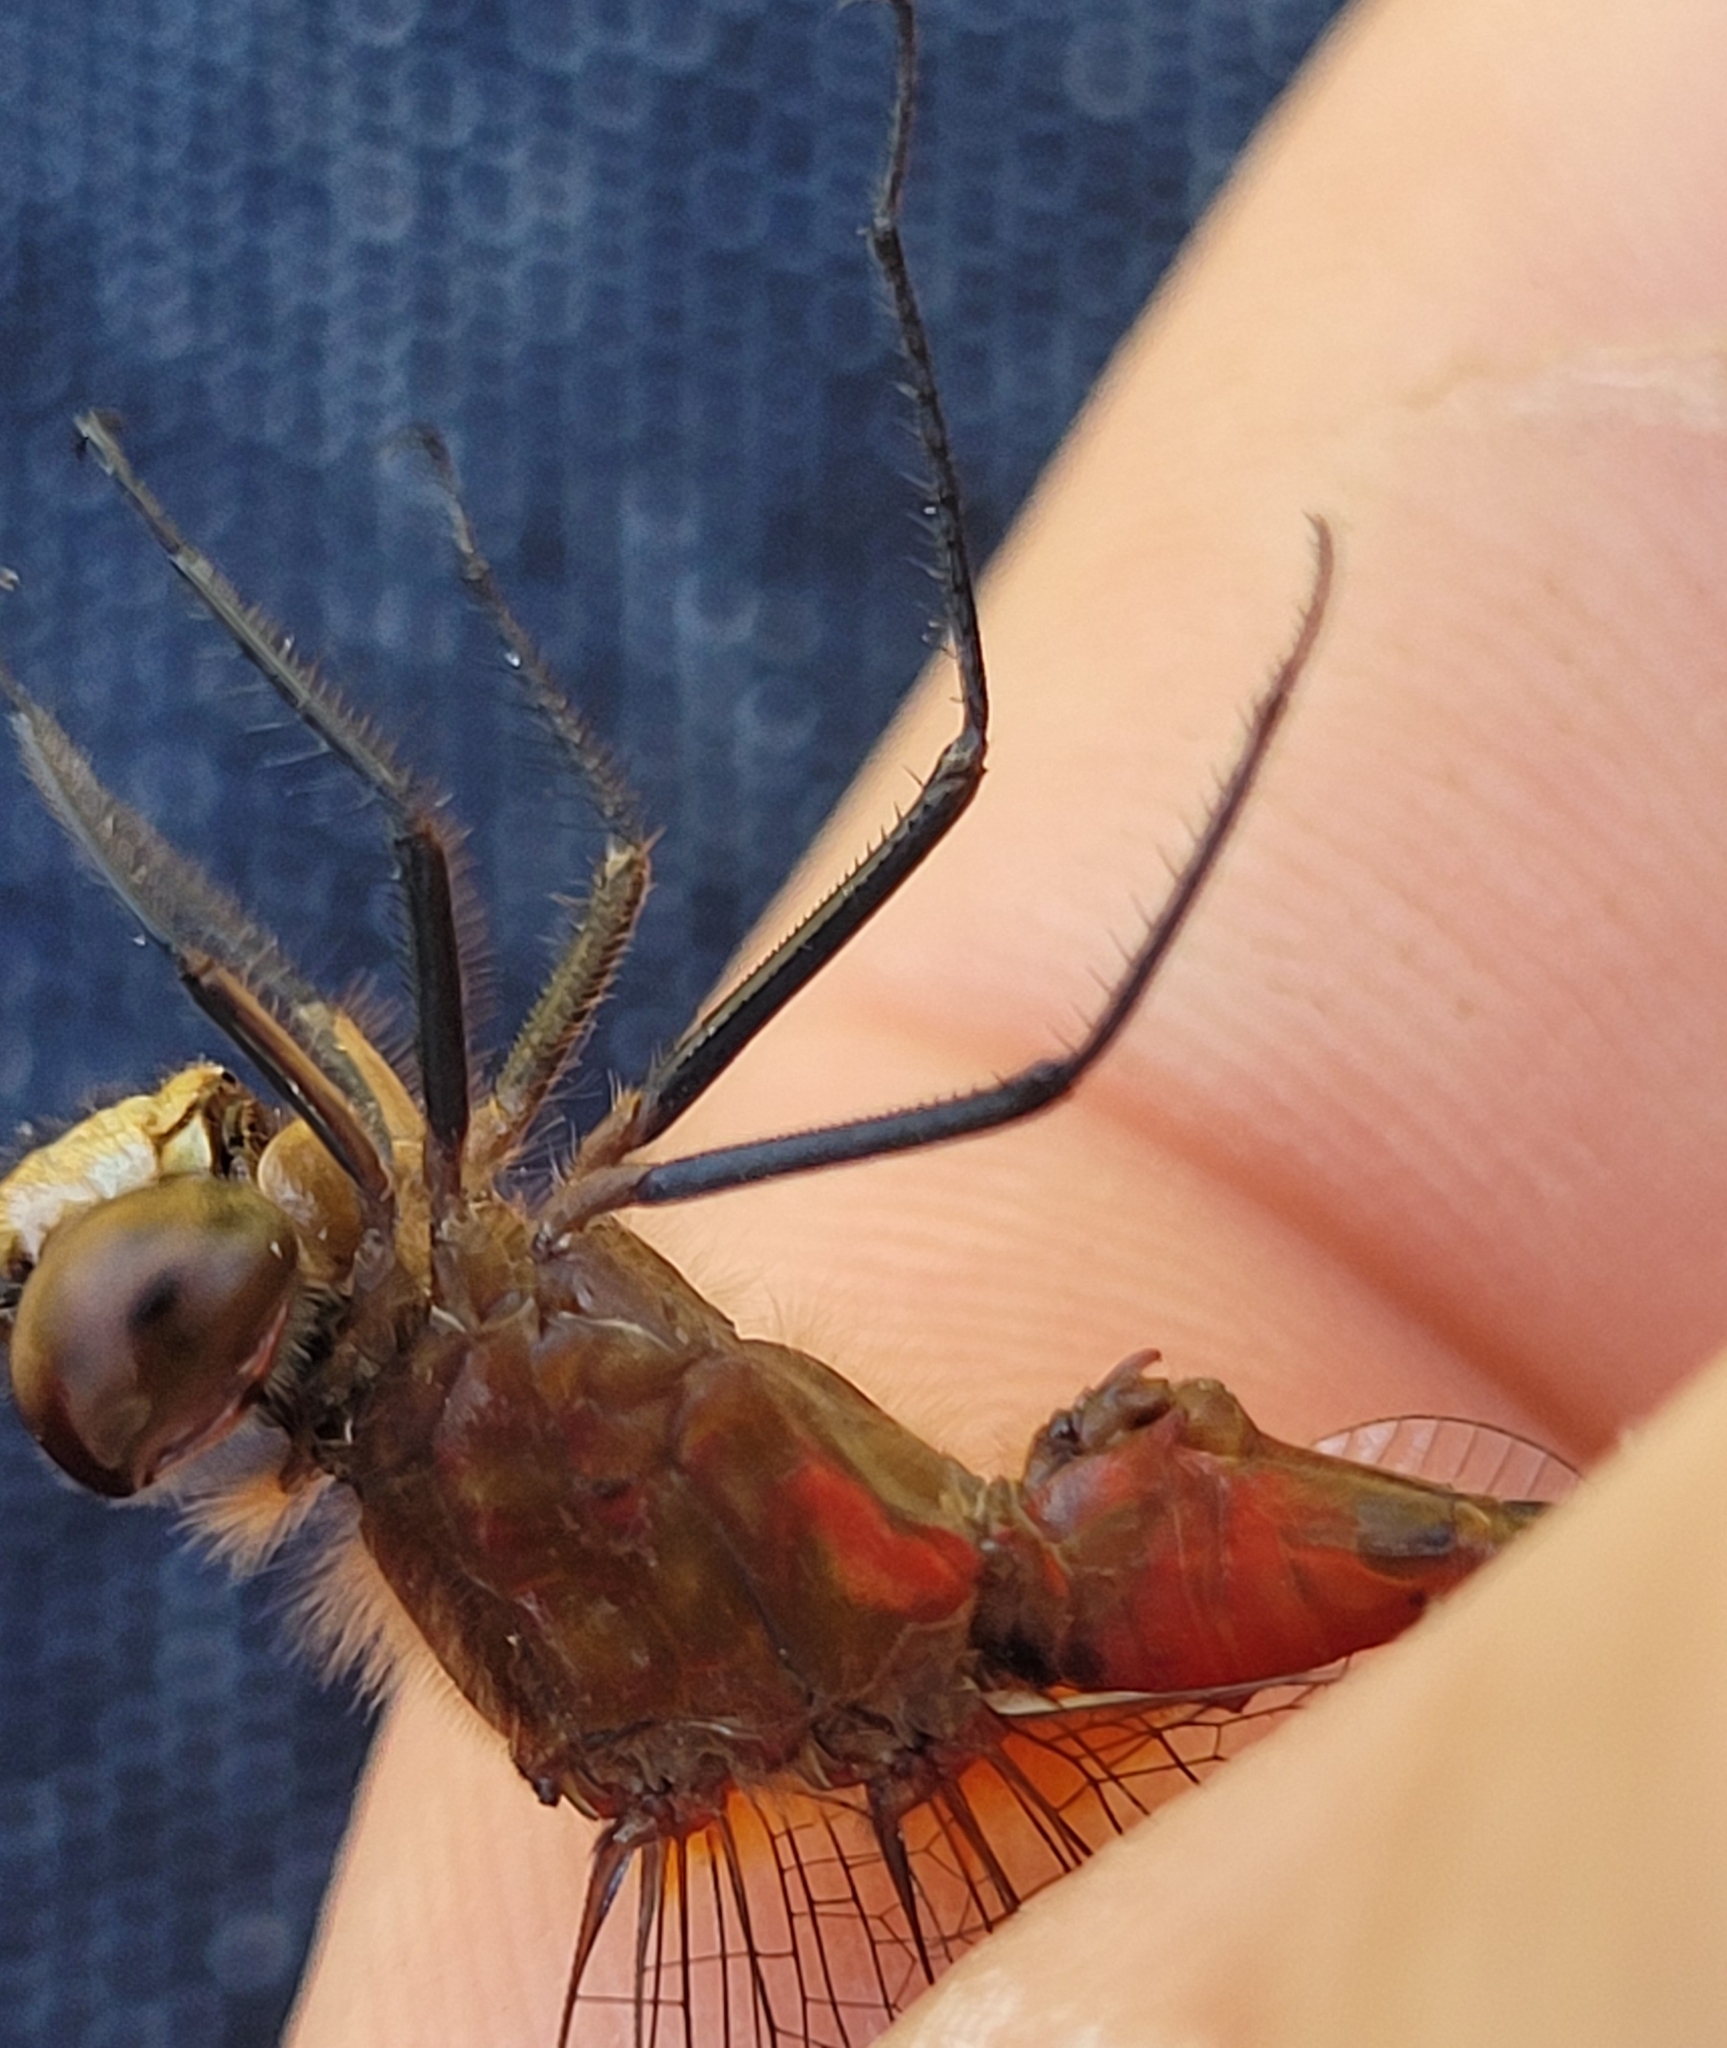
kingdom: Animalia
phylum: Arthropoda
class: Insecta
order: Odonata
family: Libellulidae
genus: Sympetrum
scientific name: Sympetrum internum
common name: Cherry-faced meadowhawk
